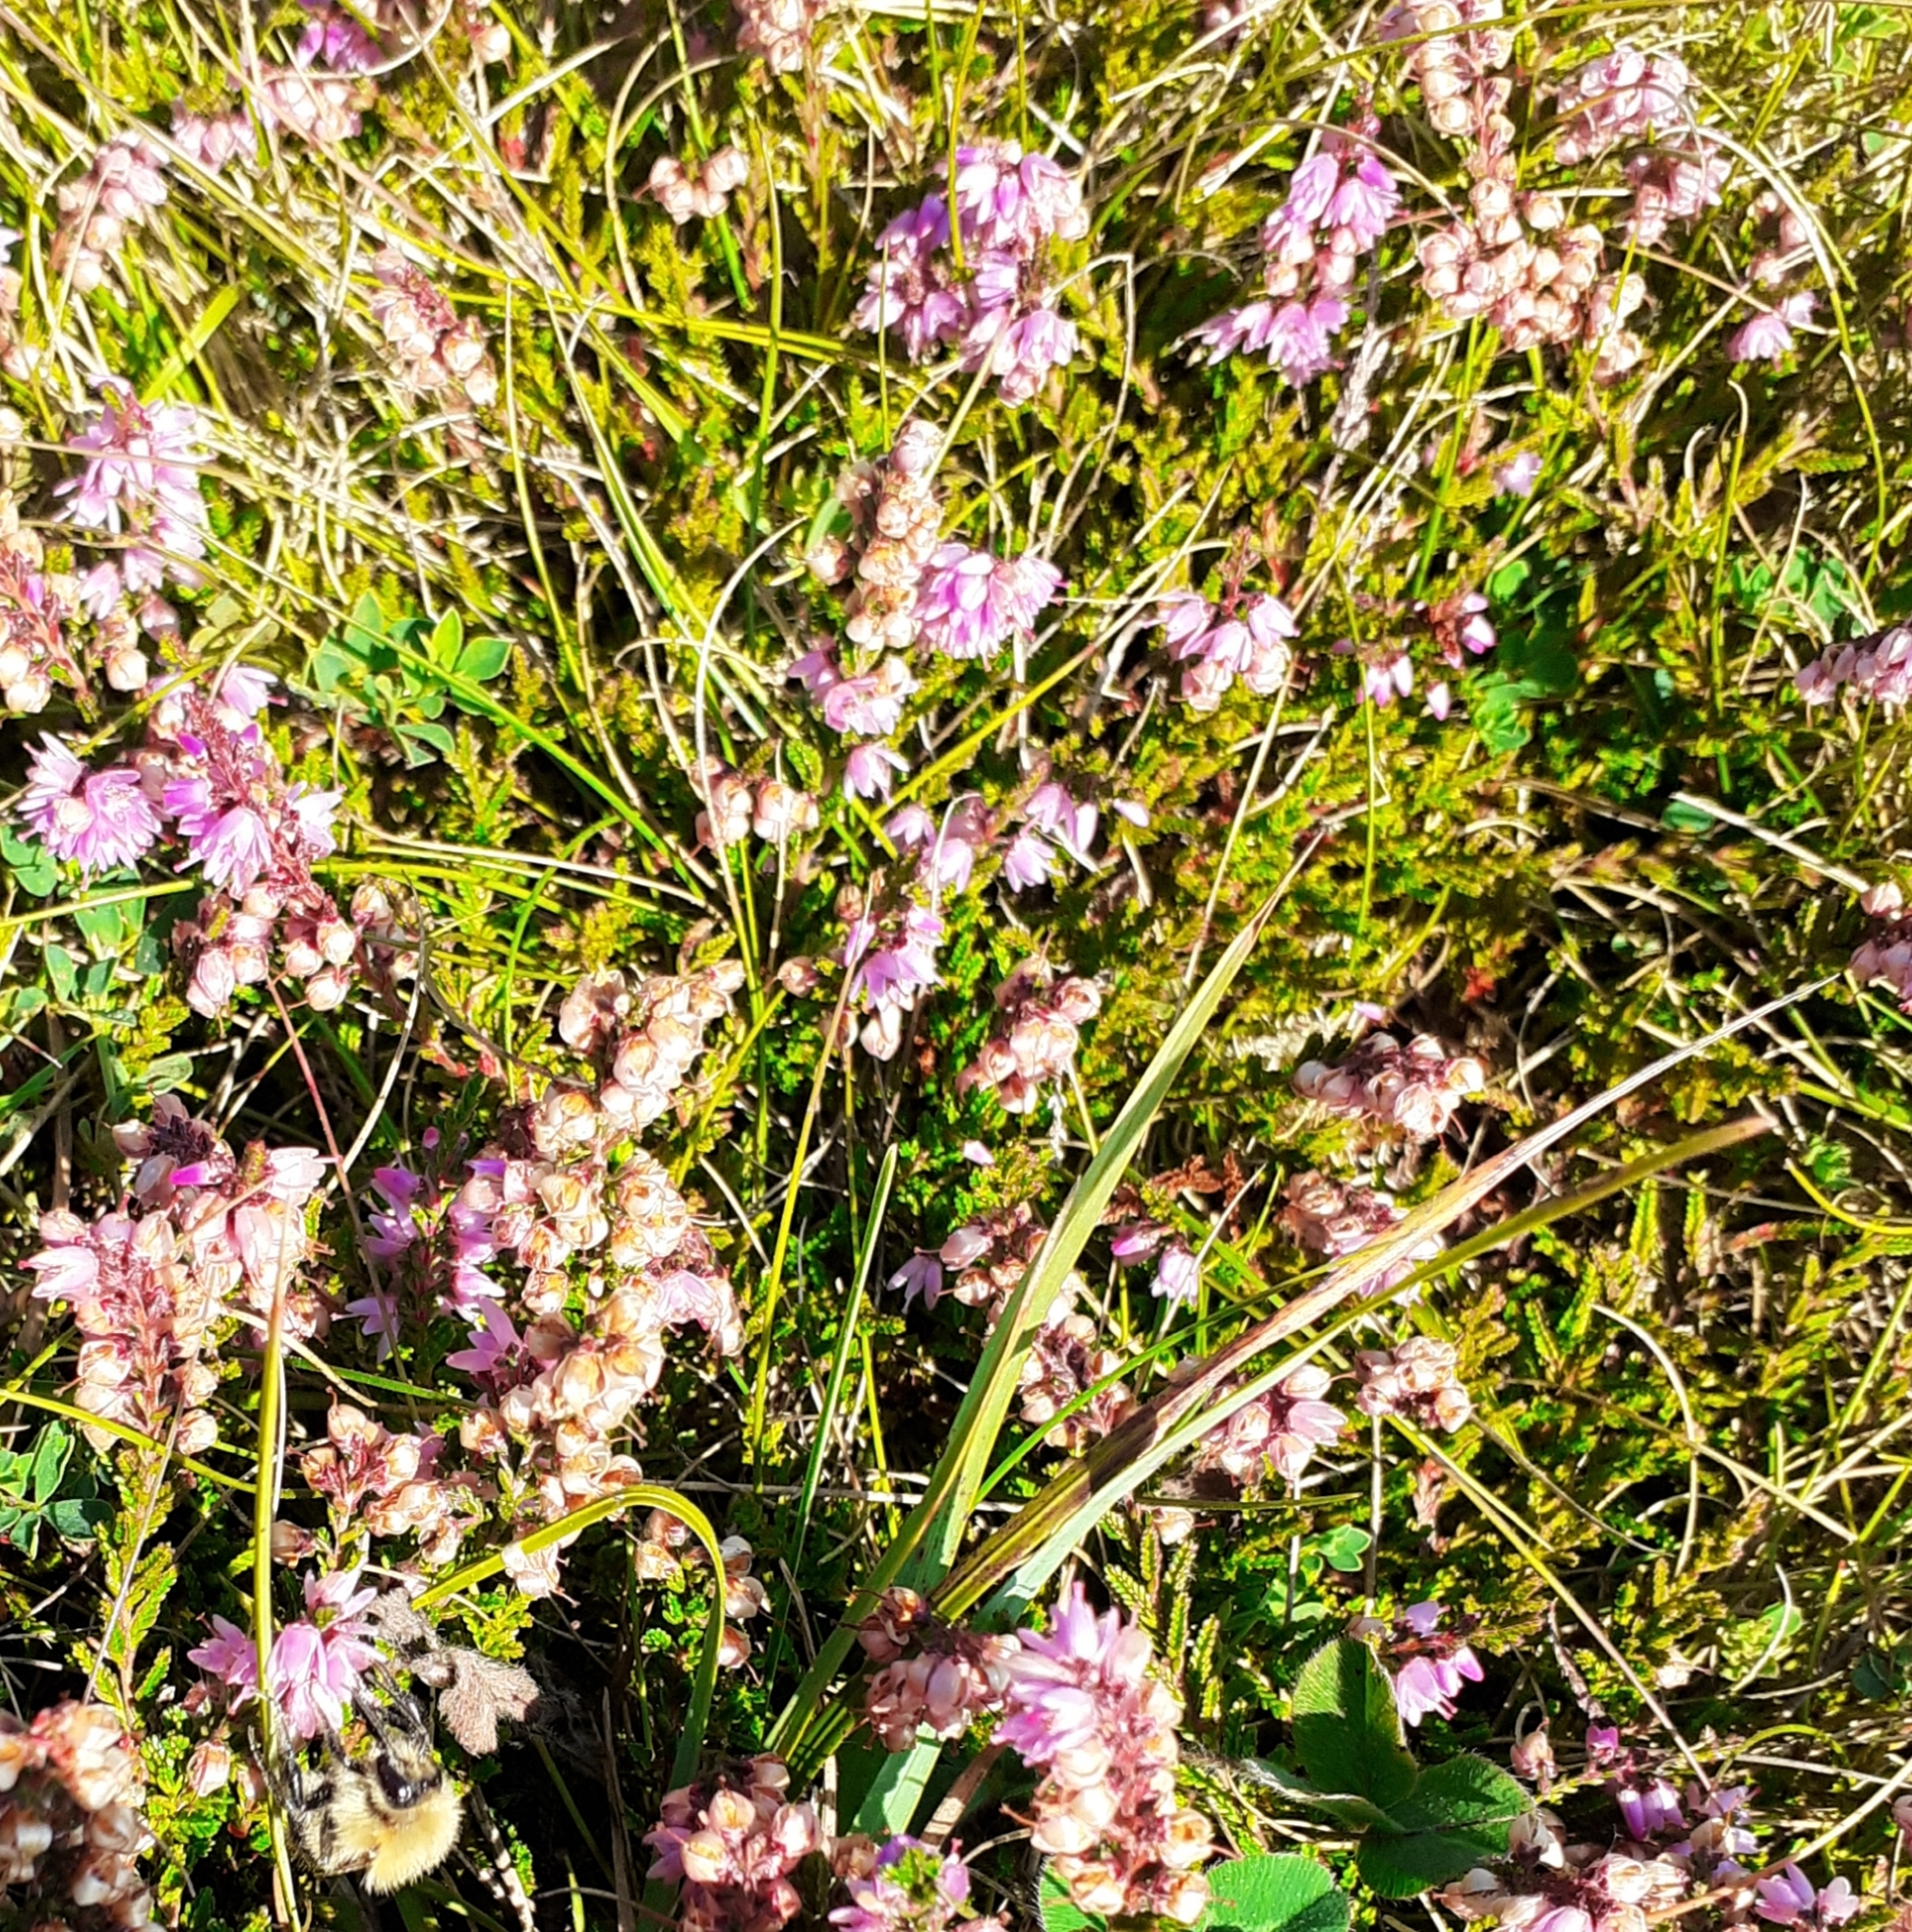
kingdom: Plantae
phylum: Tracheophyta
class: Magnoliopsida
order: Ericales
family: Ericaceae
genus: Calluna
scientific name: Calluna vulgaris
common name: Heather
